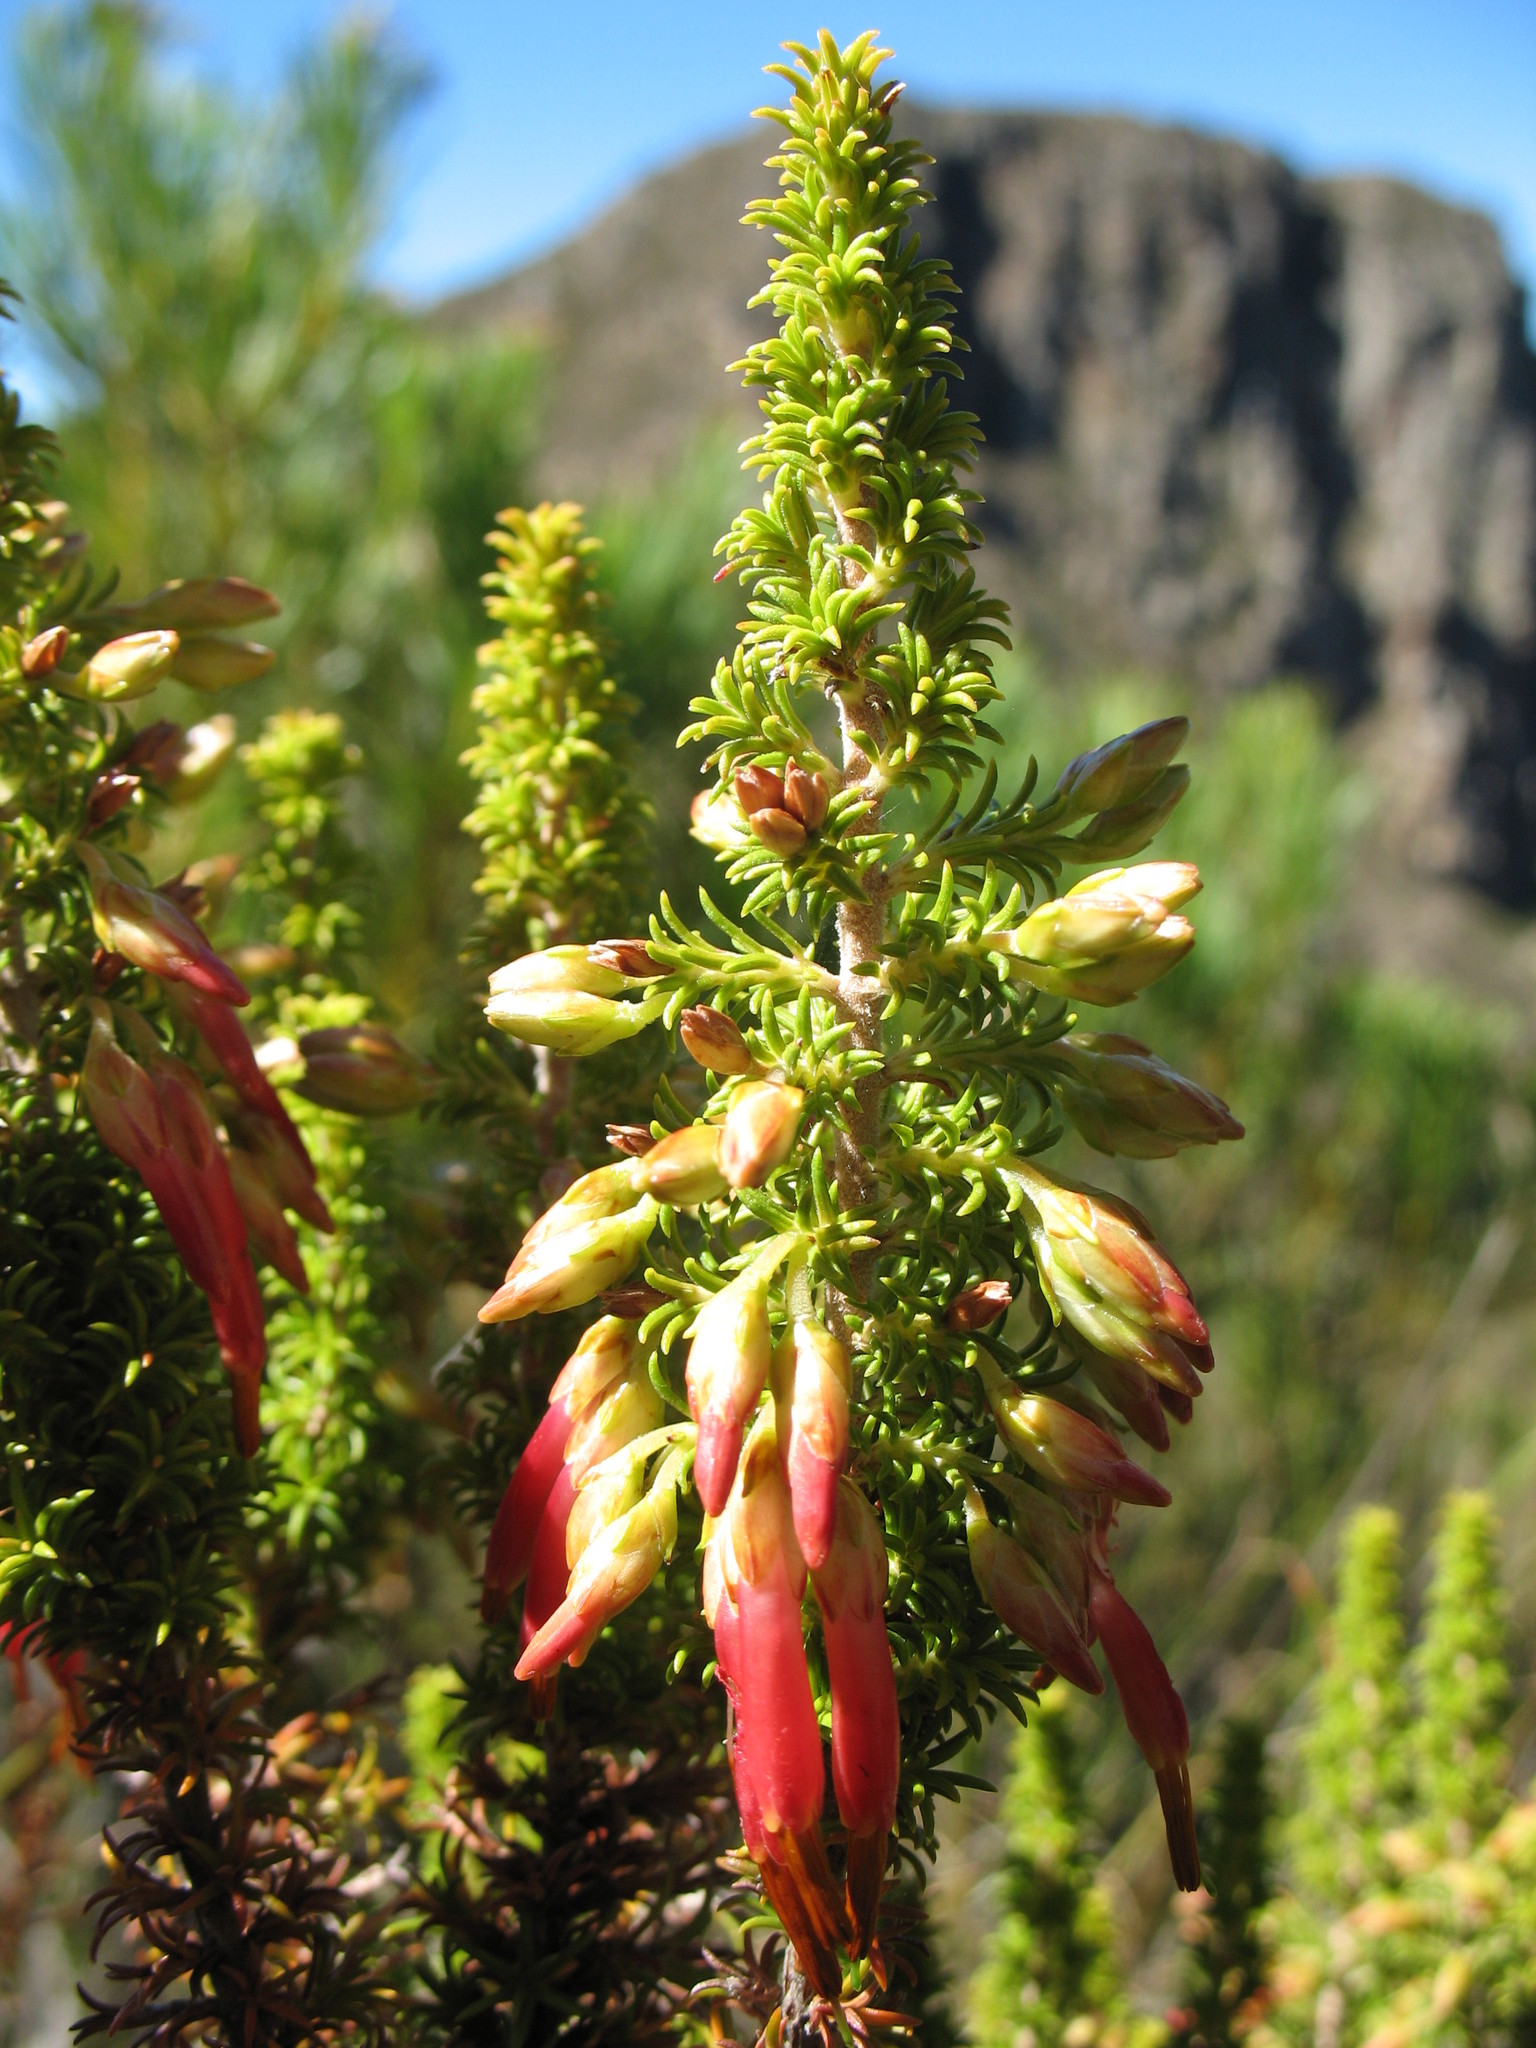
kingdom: Plantae
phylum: Tracheophyta
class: Magnoliopsida
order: Ericales
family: Ericaceae
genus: Erica
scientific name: Erica coccinea
